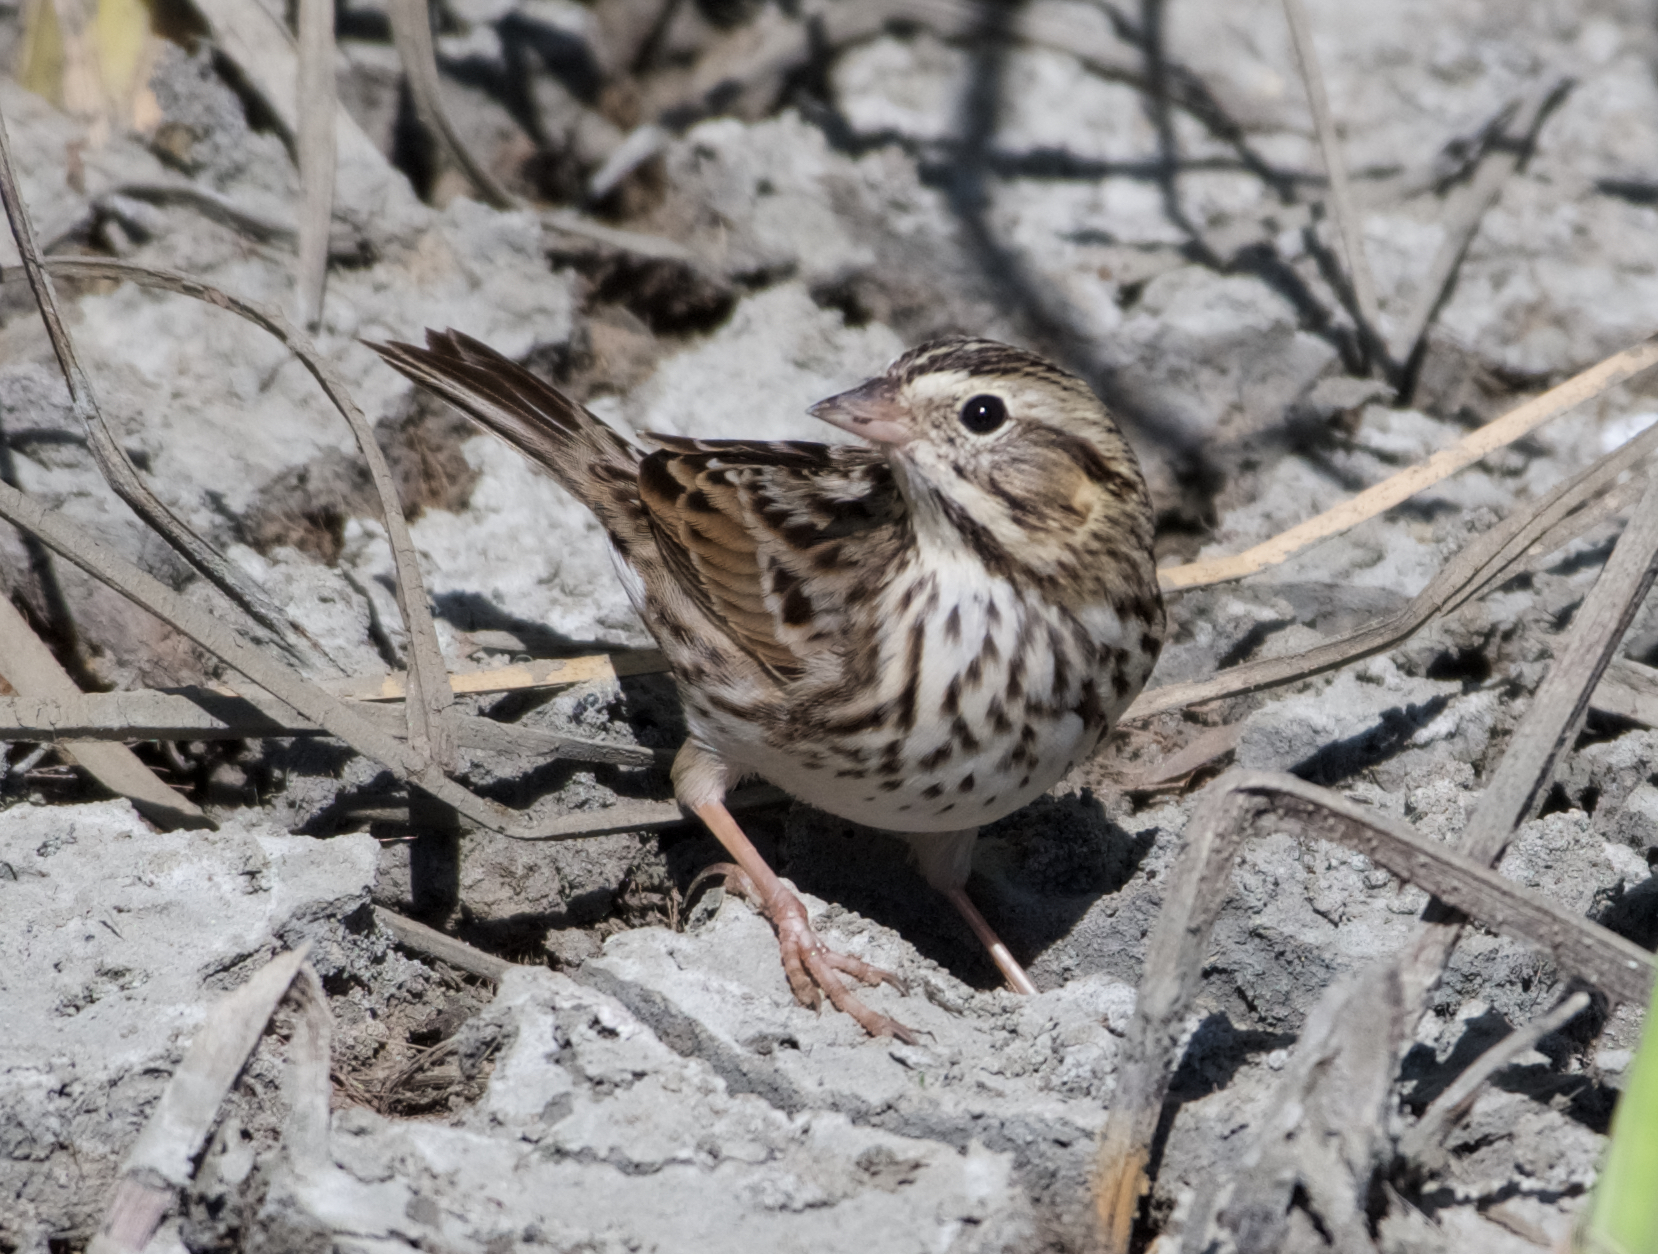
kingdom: Animalia
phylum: Chordata
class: Aves
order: Passeriformes
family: Passerellidae
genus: Passerculus
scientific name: Passerculus sandwichensis
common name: Savannah sparrow
